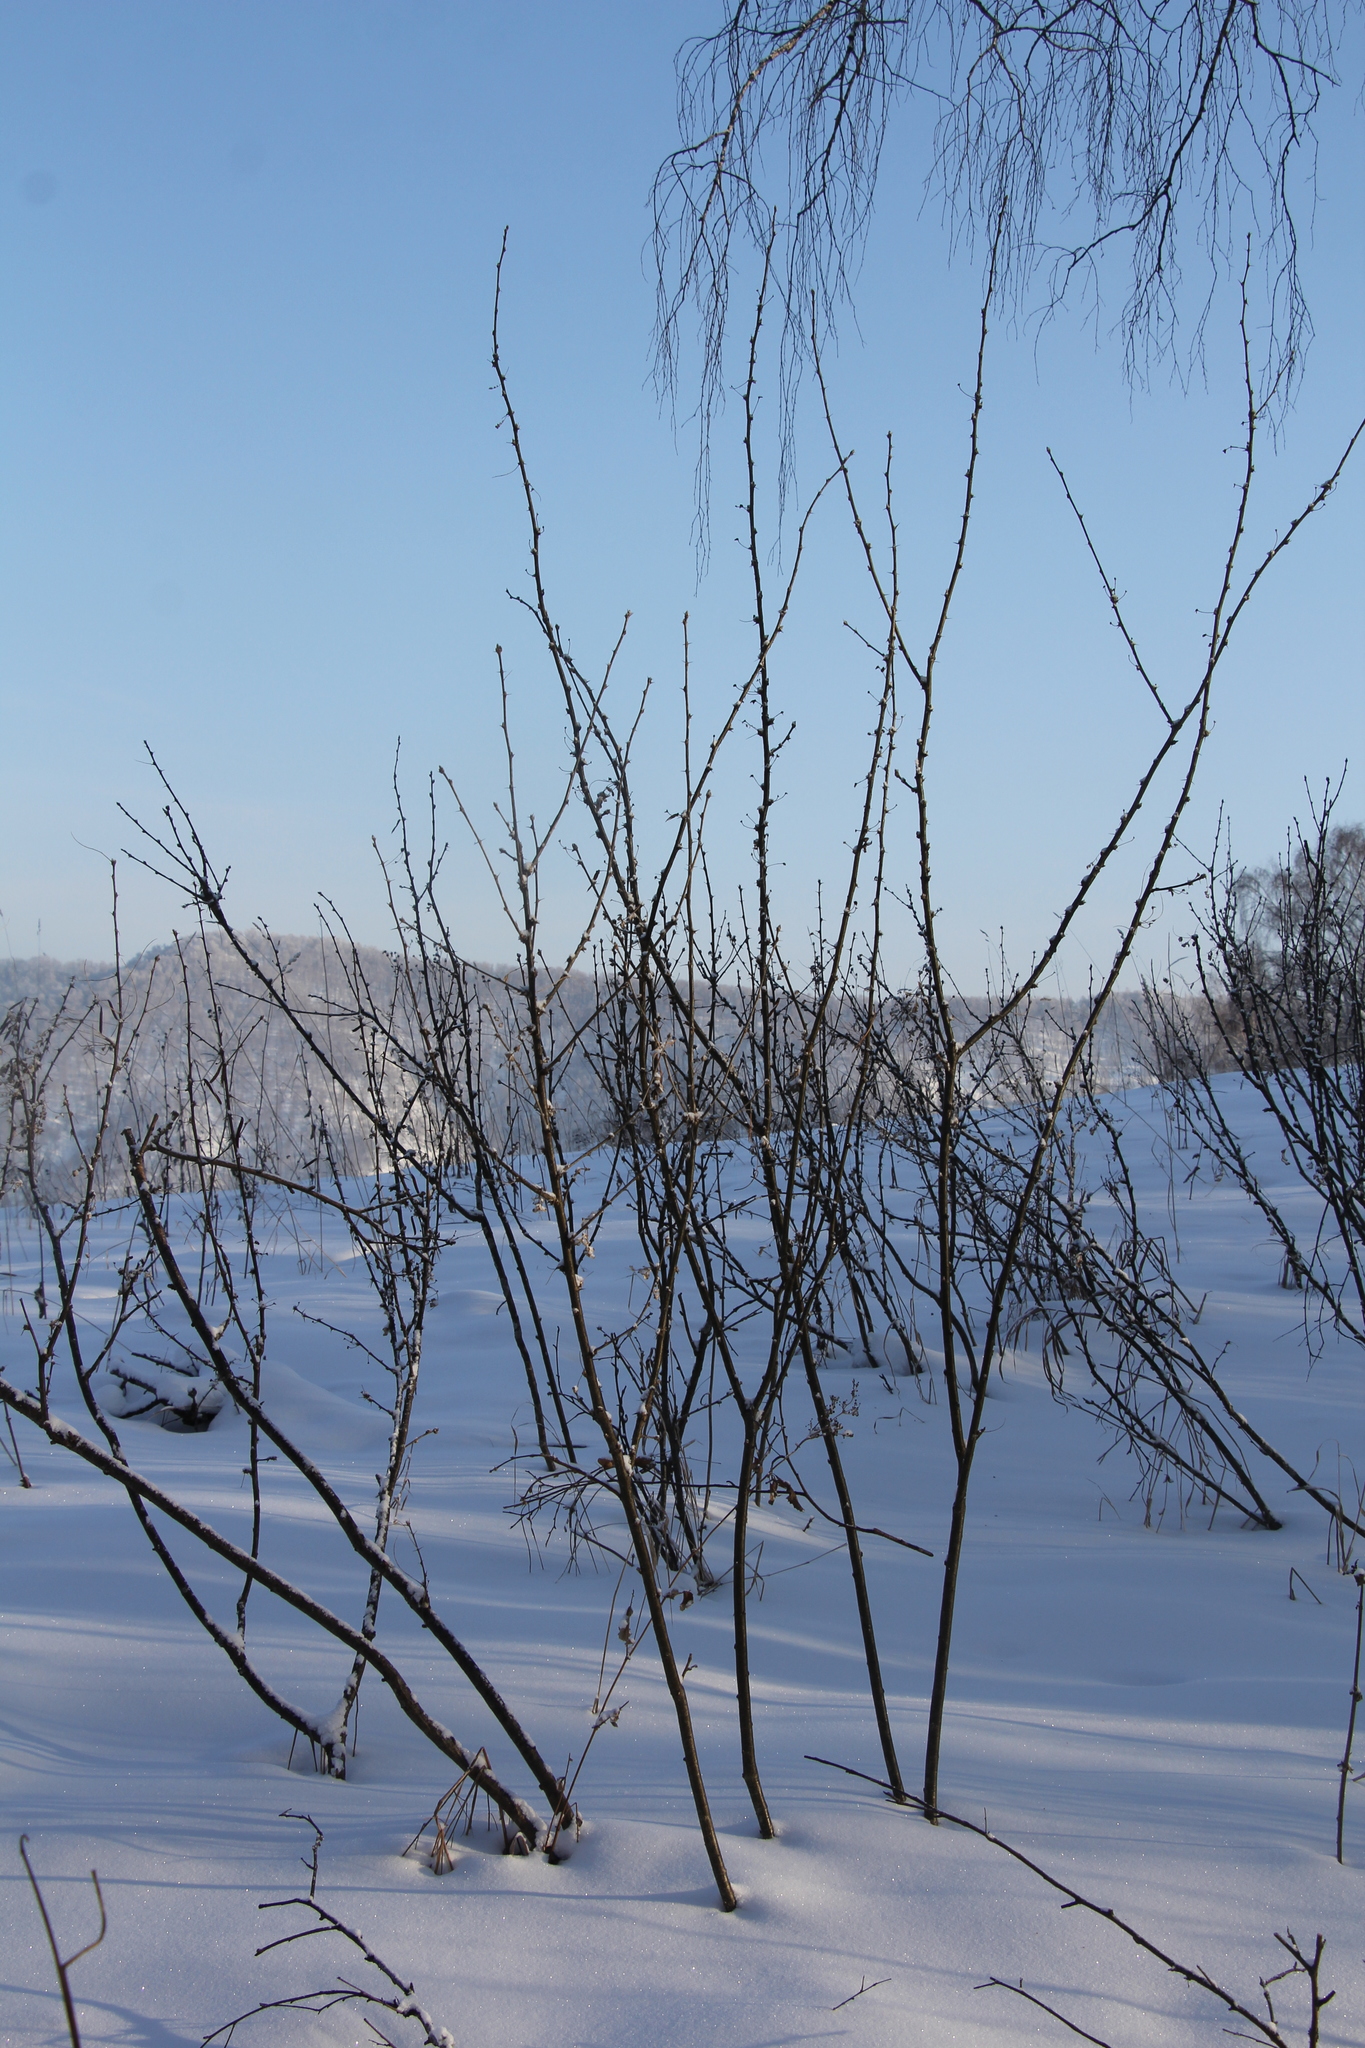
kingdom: Plantae
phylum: Tracheophyta
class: Magnoliopsida
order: Fabales
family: Fabaceae
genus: Caragana
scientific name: Caragana arborescens
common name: Siberian peashrub
